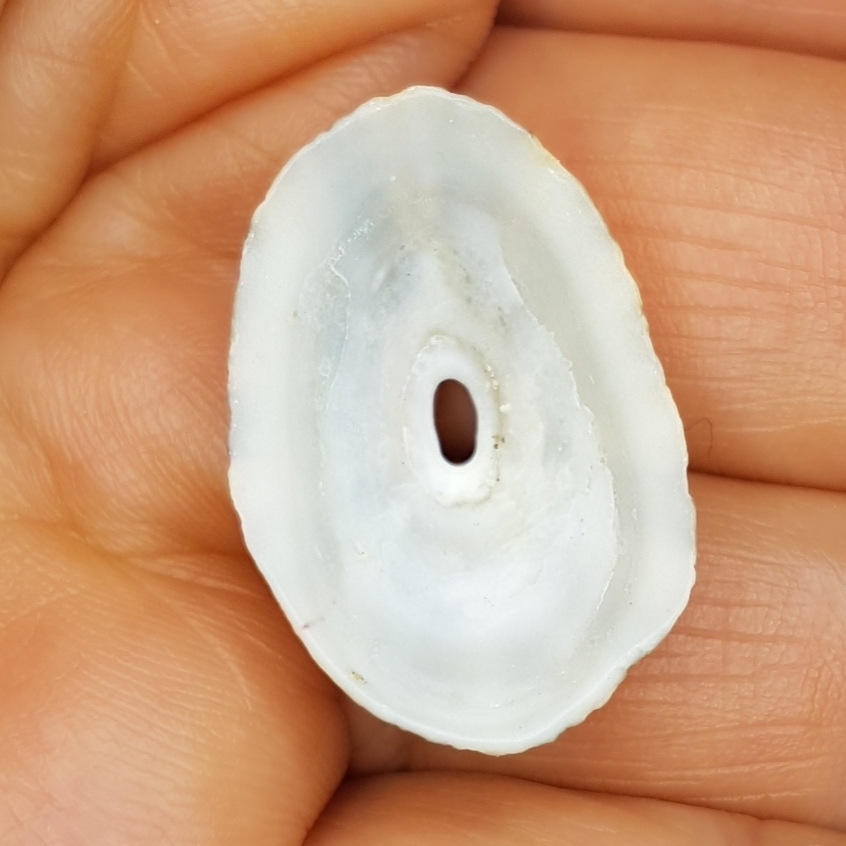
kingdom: Animalia
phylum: Mollusca
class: Gastropoda
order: Lepetellida
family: Fissurellidae
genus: Fissurella
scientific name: Fissurella nubecula
